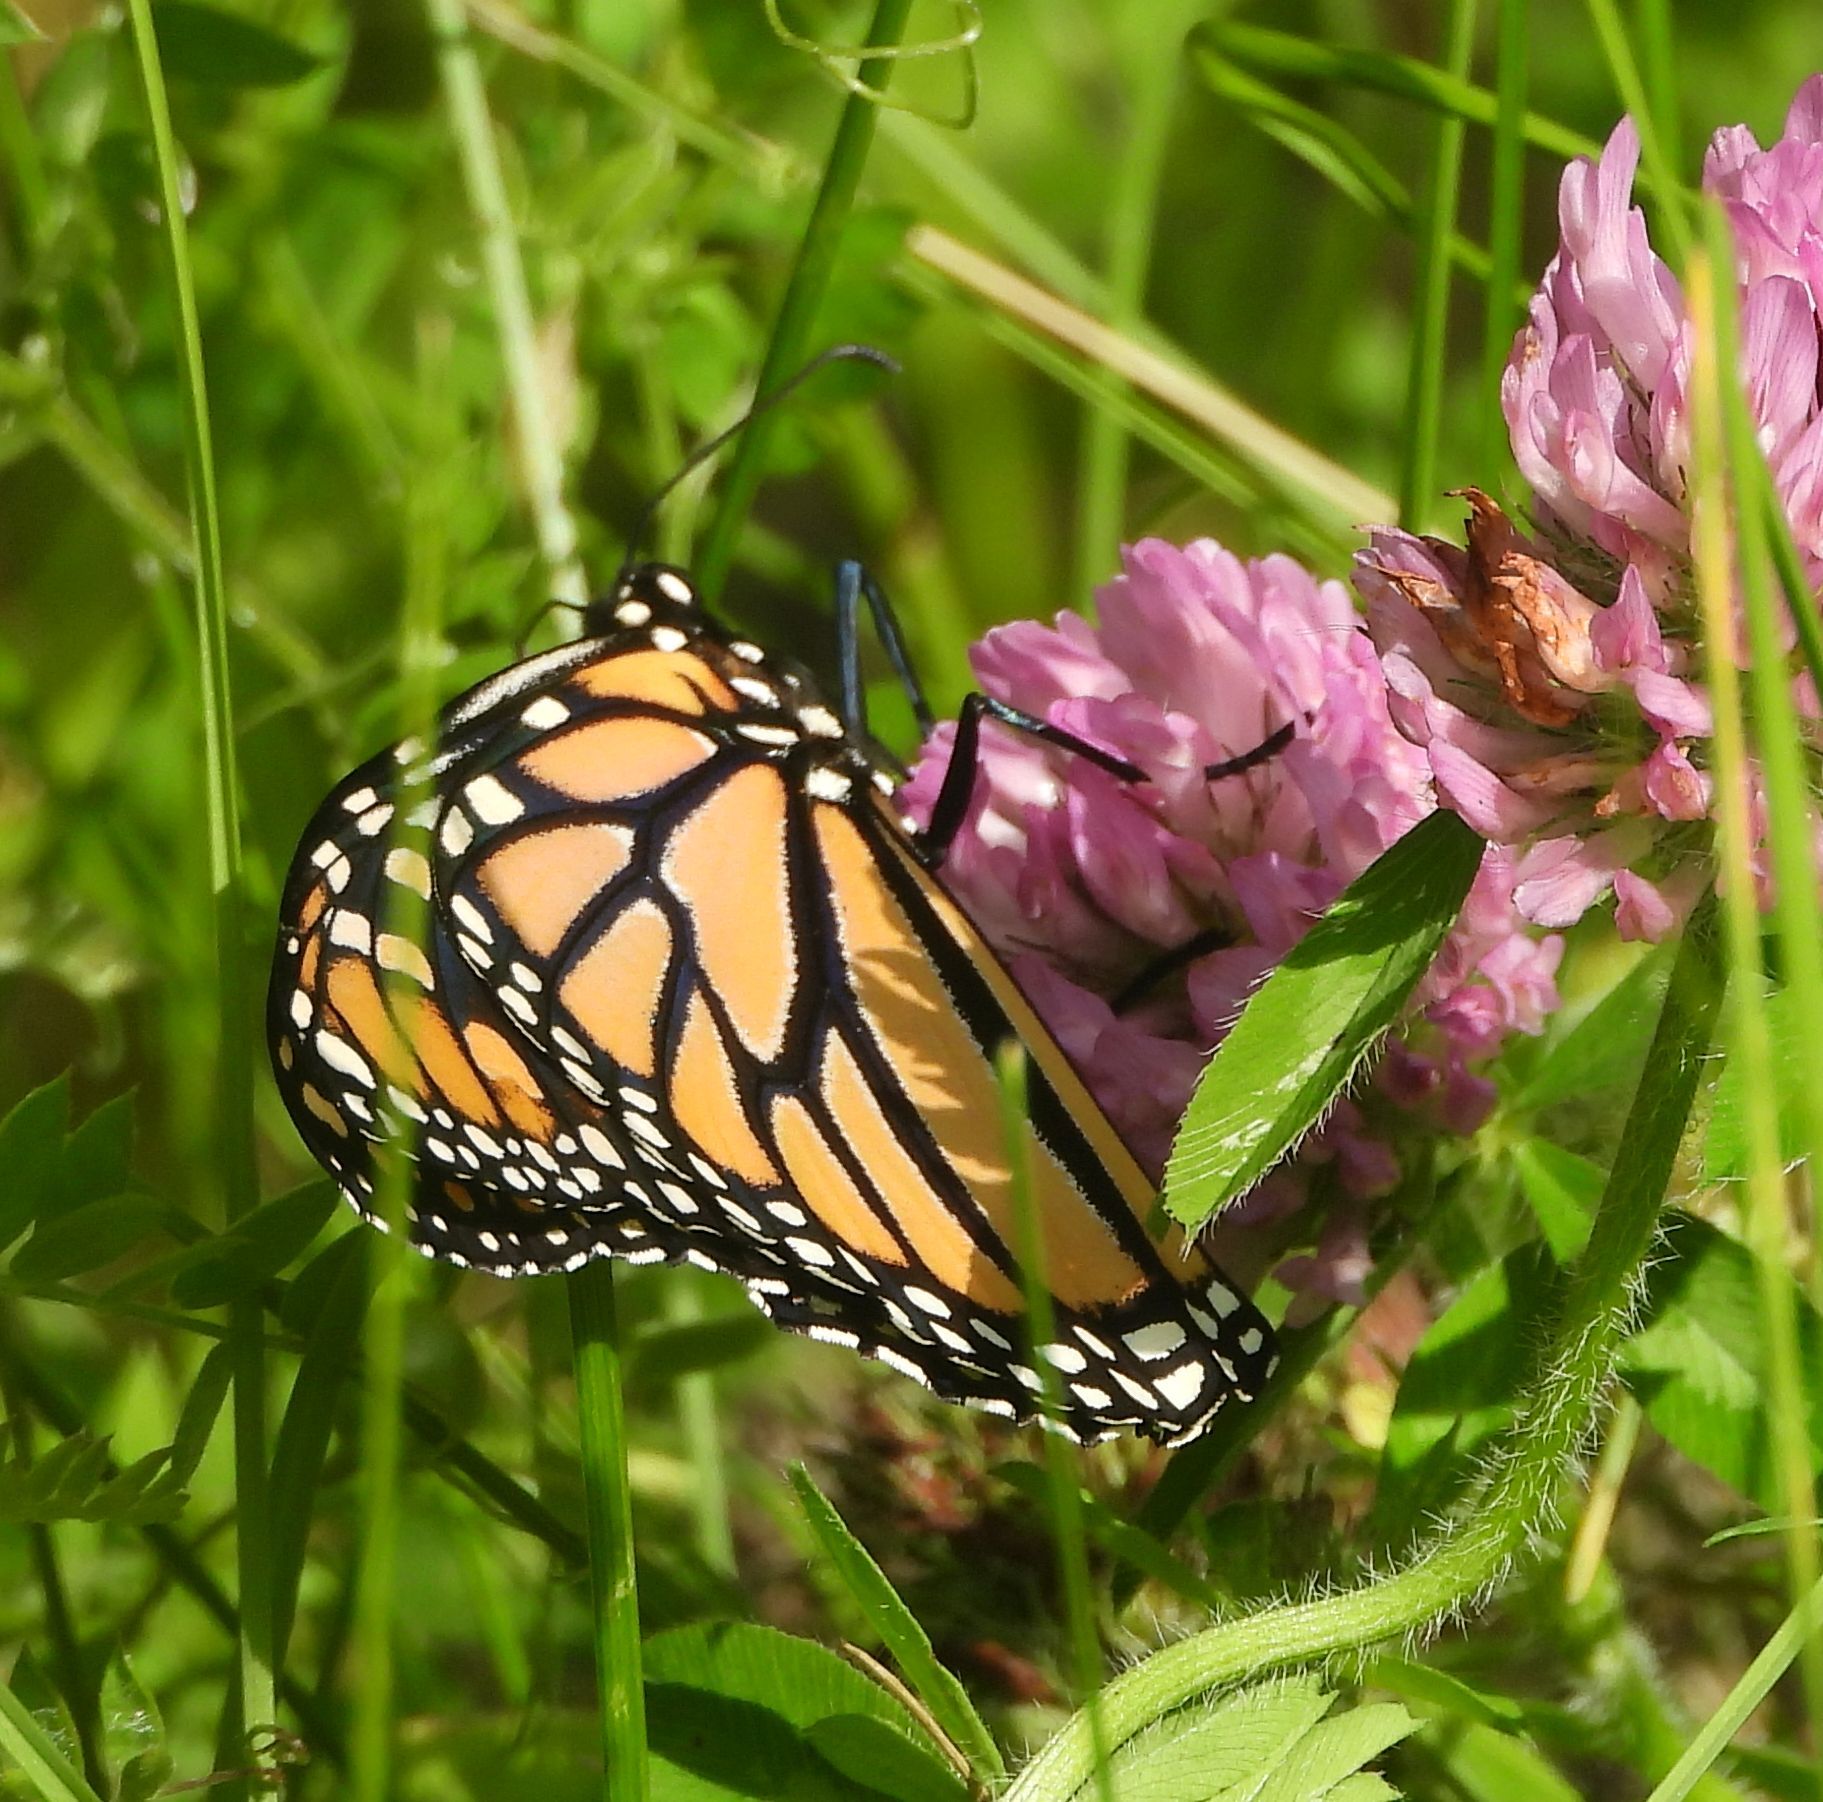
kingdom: Animalia
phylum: Arthropoda
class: Insecta
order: Lepidoptera
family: Nymphalidae
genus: Danaus
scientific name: Danaus plexippus
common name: Monarch
